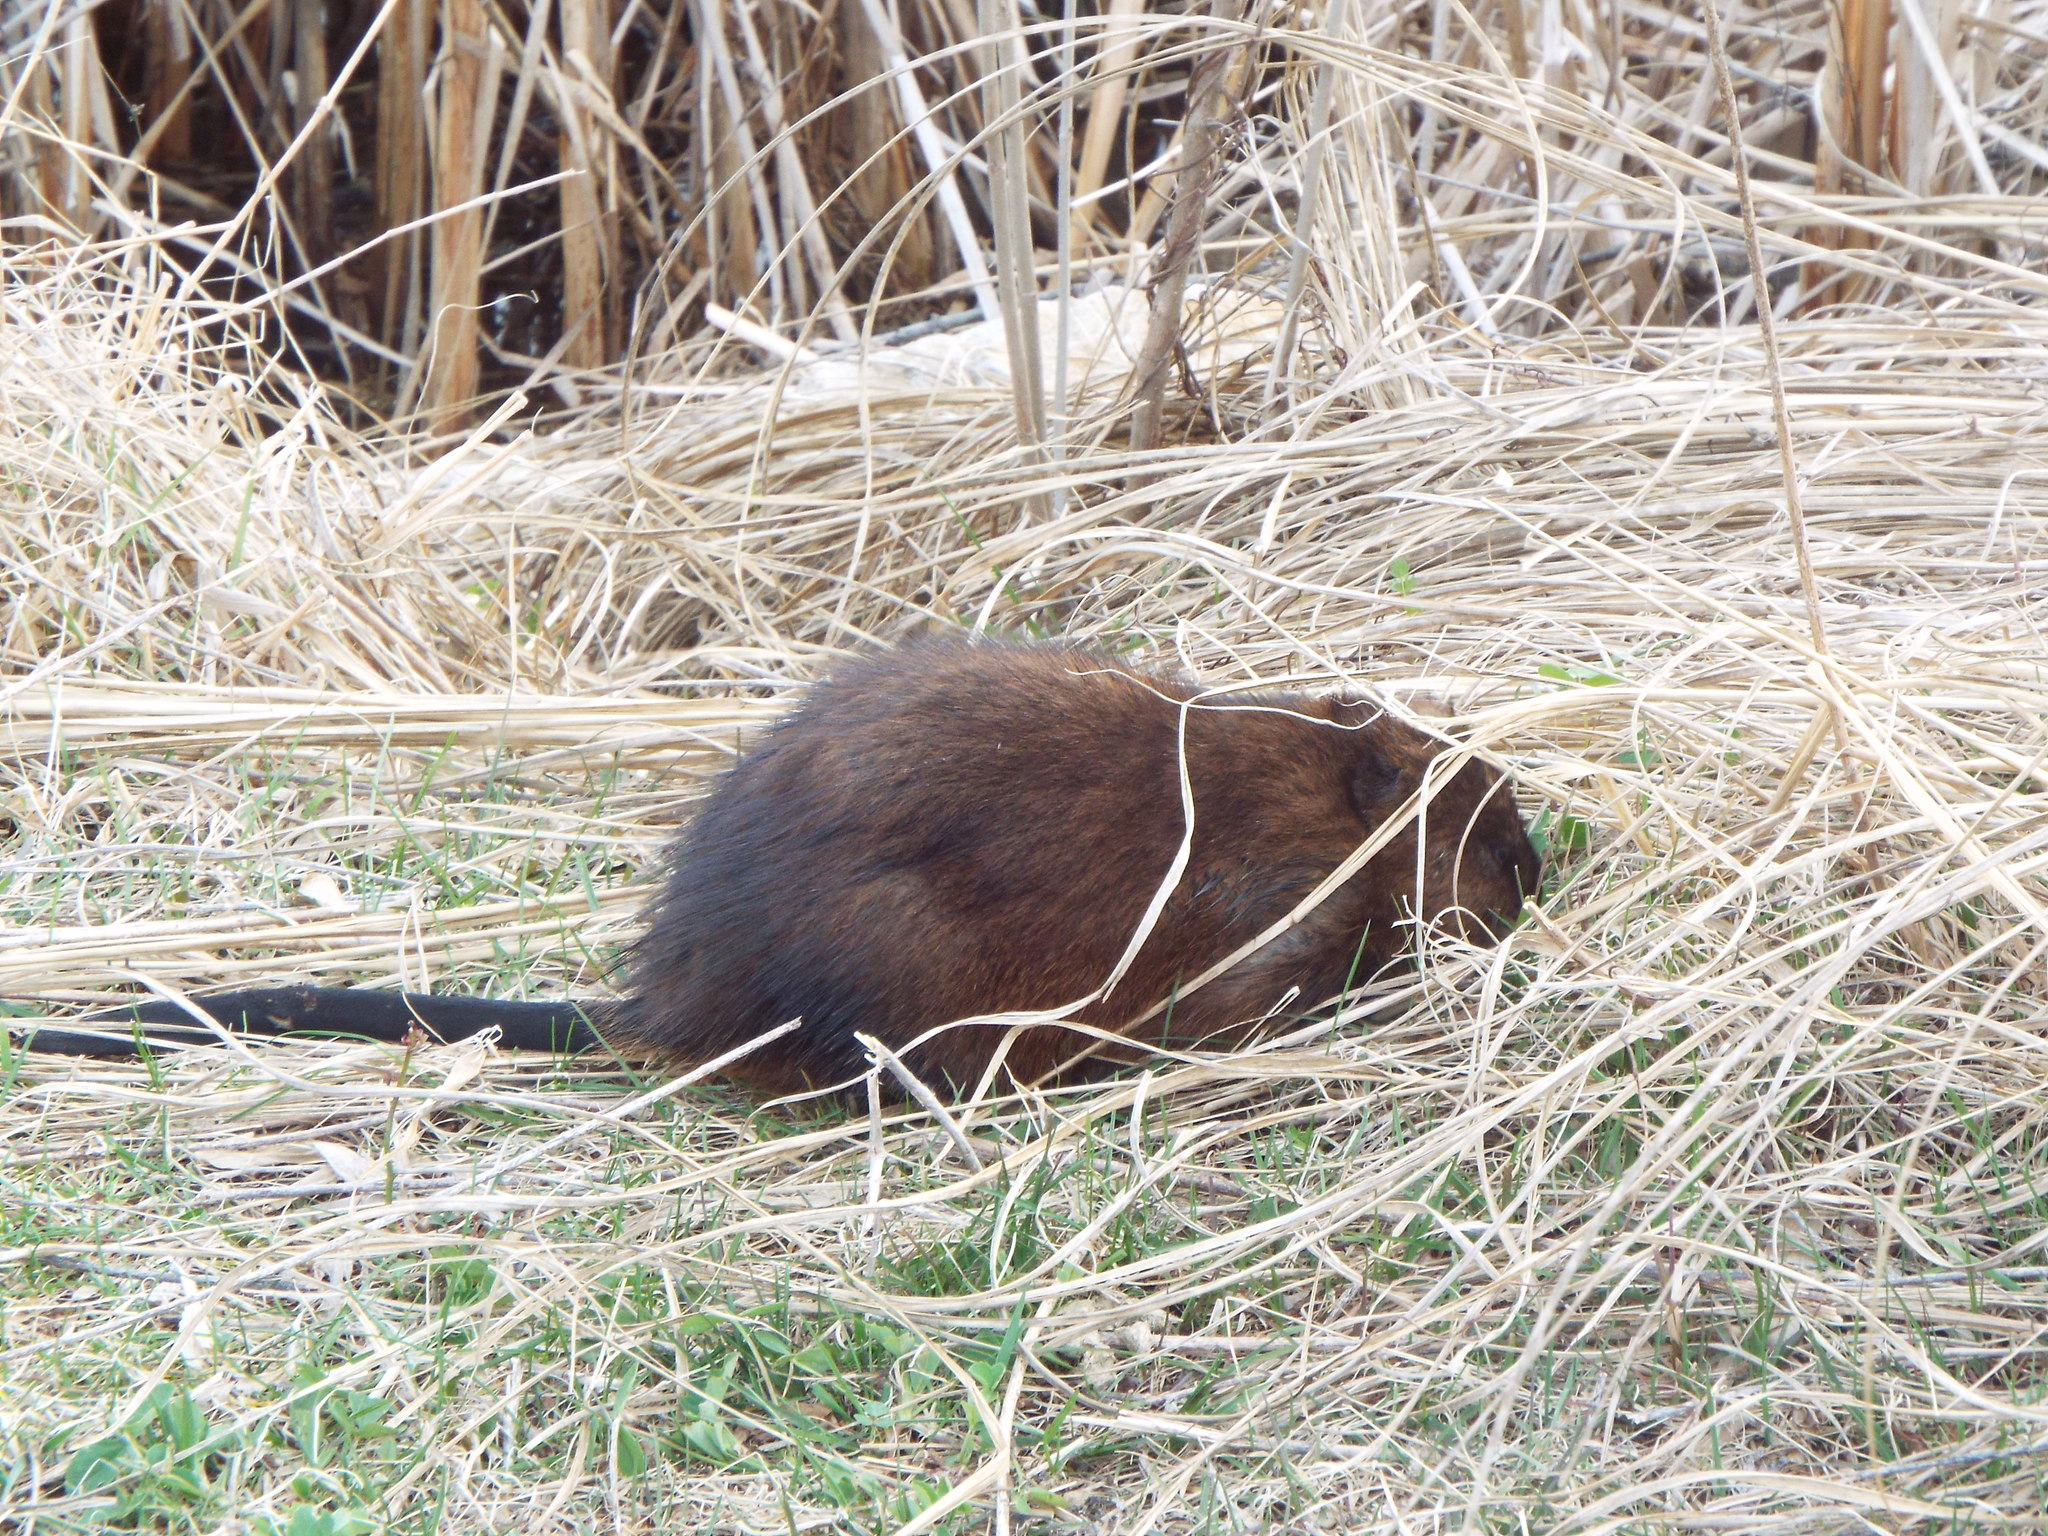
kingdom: Animalia
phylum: Chordata
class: Mammalia
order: Rodentia
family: Cricetidae
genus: Ondatra
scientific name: Ondatra zibethicus
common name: Muskrat
